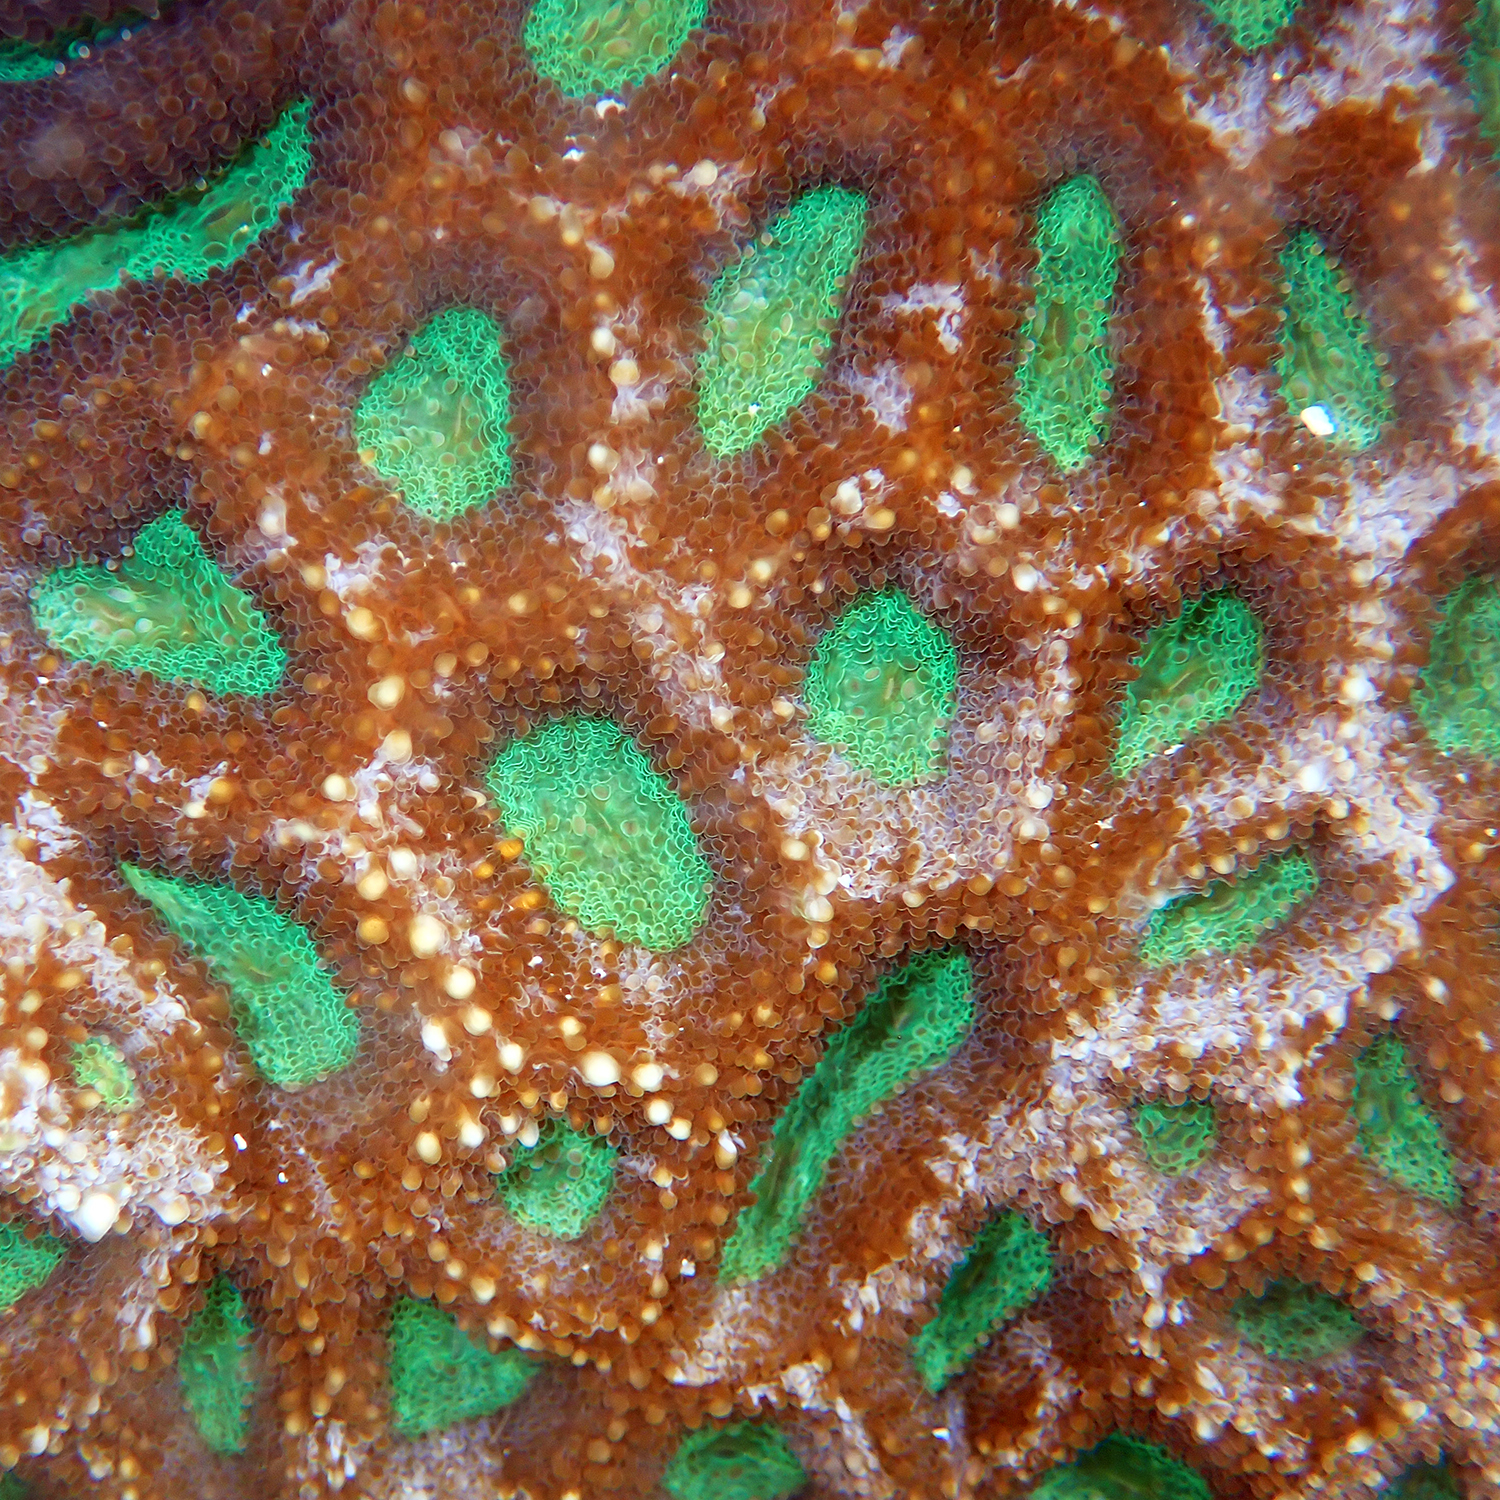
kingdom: Animalia
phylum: Cnidaria
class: Anthozoa
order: Scleractinia
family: Lobophylliidae
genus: Homophyllia
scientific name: Homophyllia bowerbanki
